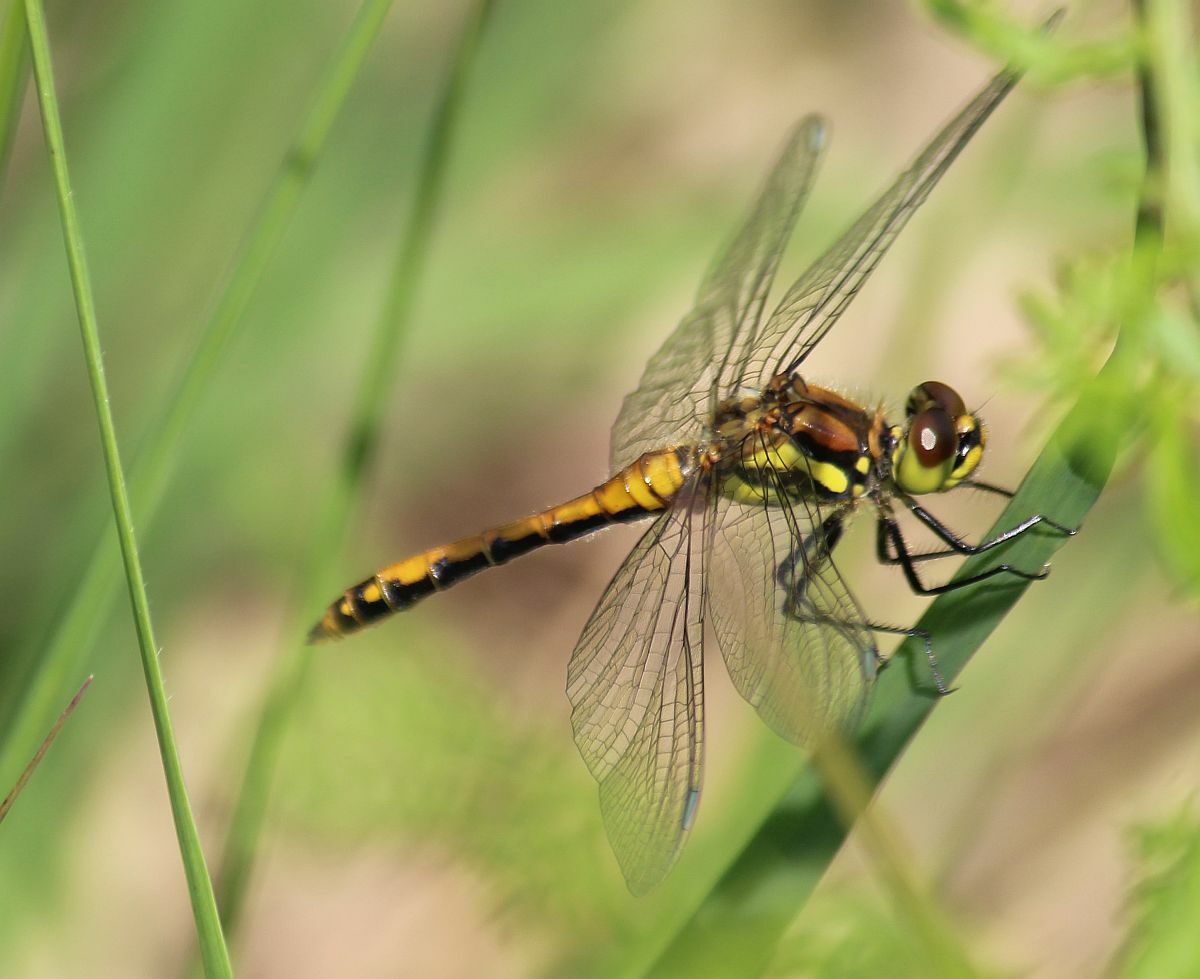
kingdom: Animalia
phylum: Arthropoda
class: Insecta
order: Odonata
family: Libellulidae
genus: Sympetrum
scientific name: Sympetrum danae
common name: Black darter
